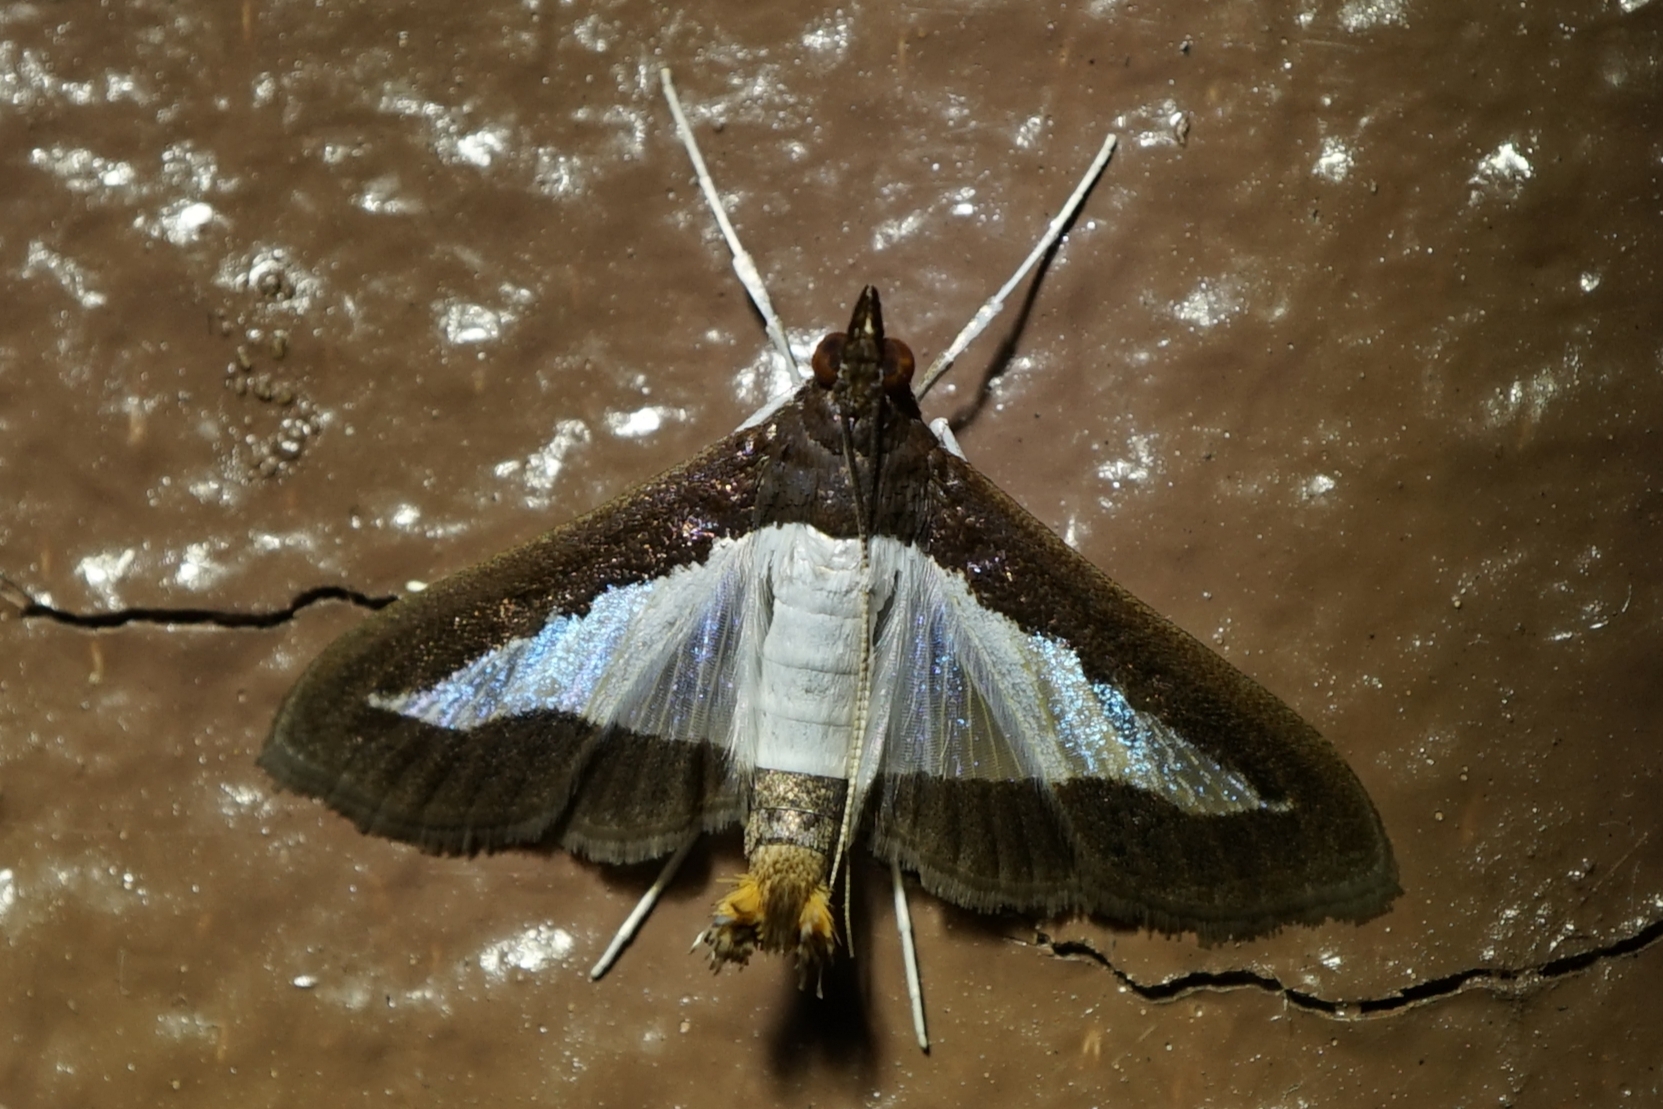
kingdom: Animalia
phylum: Arthropoda
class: Insecta
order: Lepidoptera
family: Crambidae
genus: Diaphania
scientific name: Diaphania indica
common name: Cucumber moth
